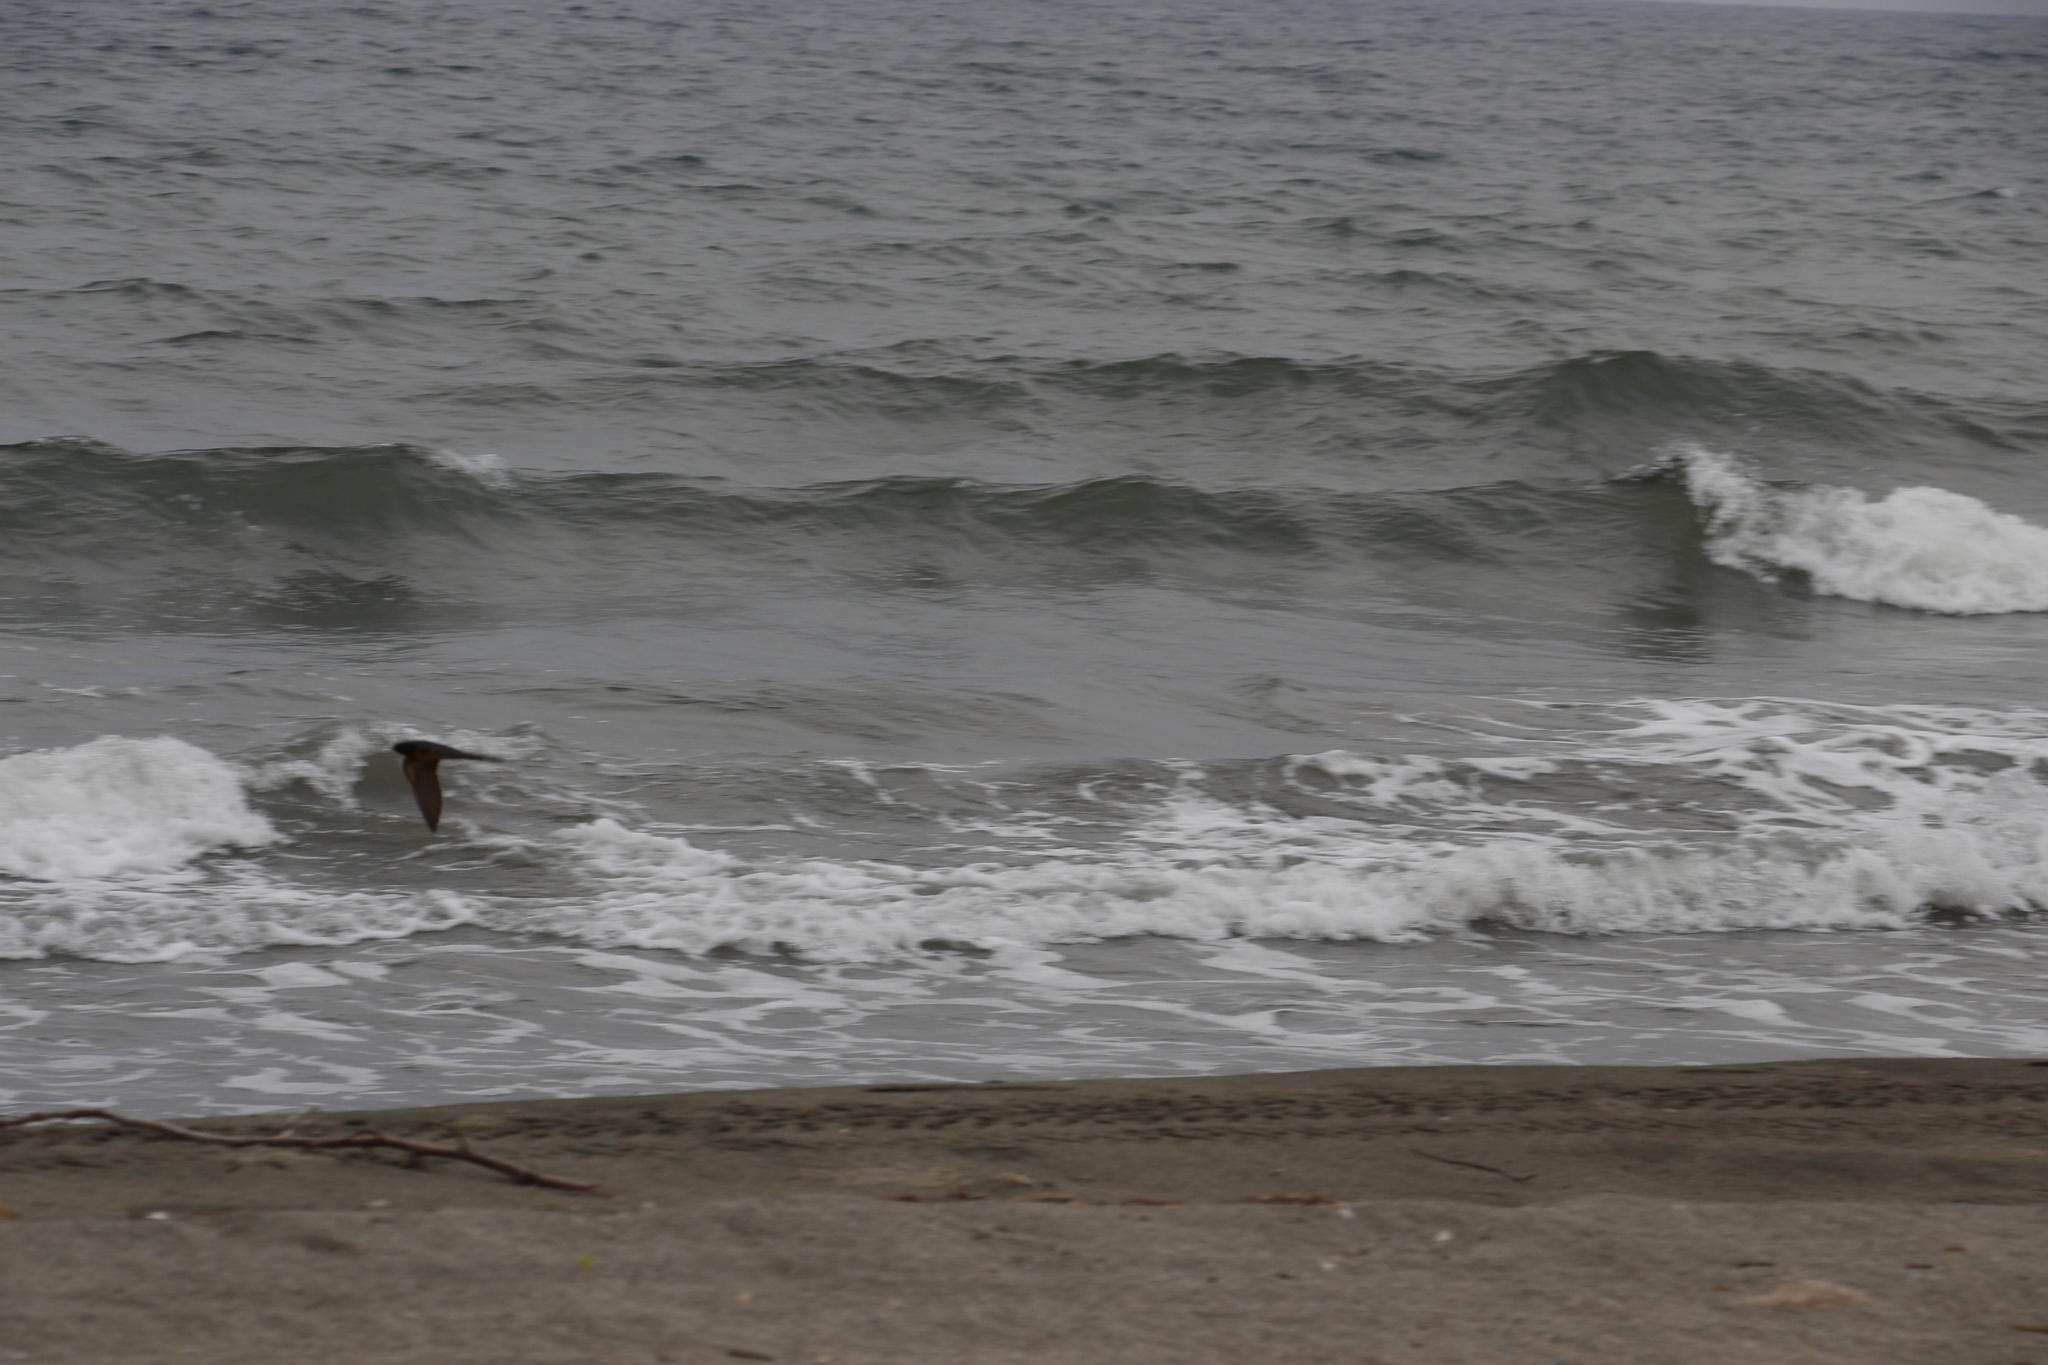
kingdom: Animalia
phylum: Chordata
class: Aves
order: Passeriformes
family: Hirundinidae
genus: Hirundo
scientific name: Hirundo rustica
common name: Barn swallow
